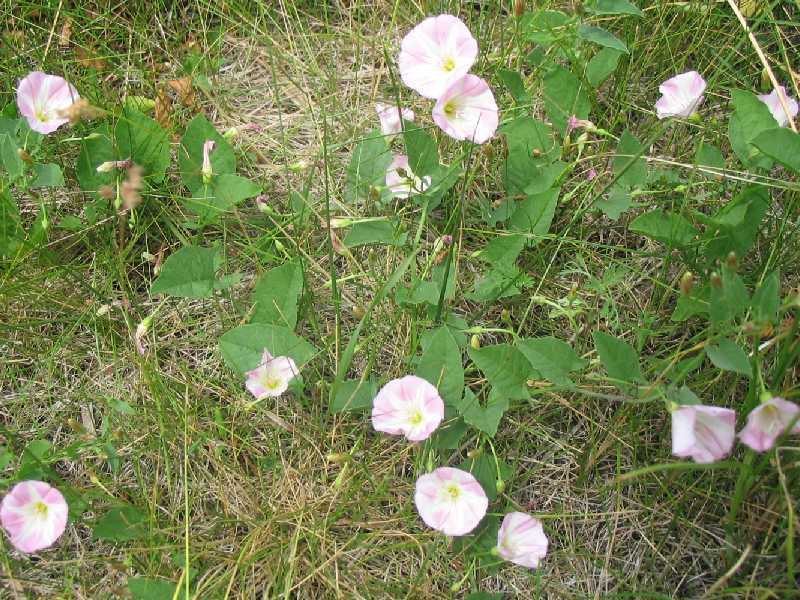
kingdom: Plantae
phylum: Tracheophyta
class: Magnoliopsida
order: Solanales
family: Convolvulaceae
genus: Convolvulus
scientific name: Convolvulus arvensis
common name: Field bindweed
